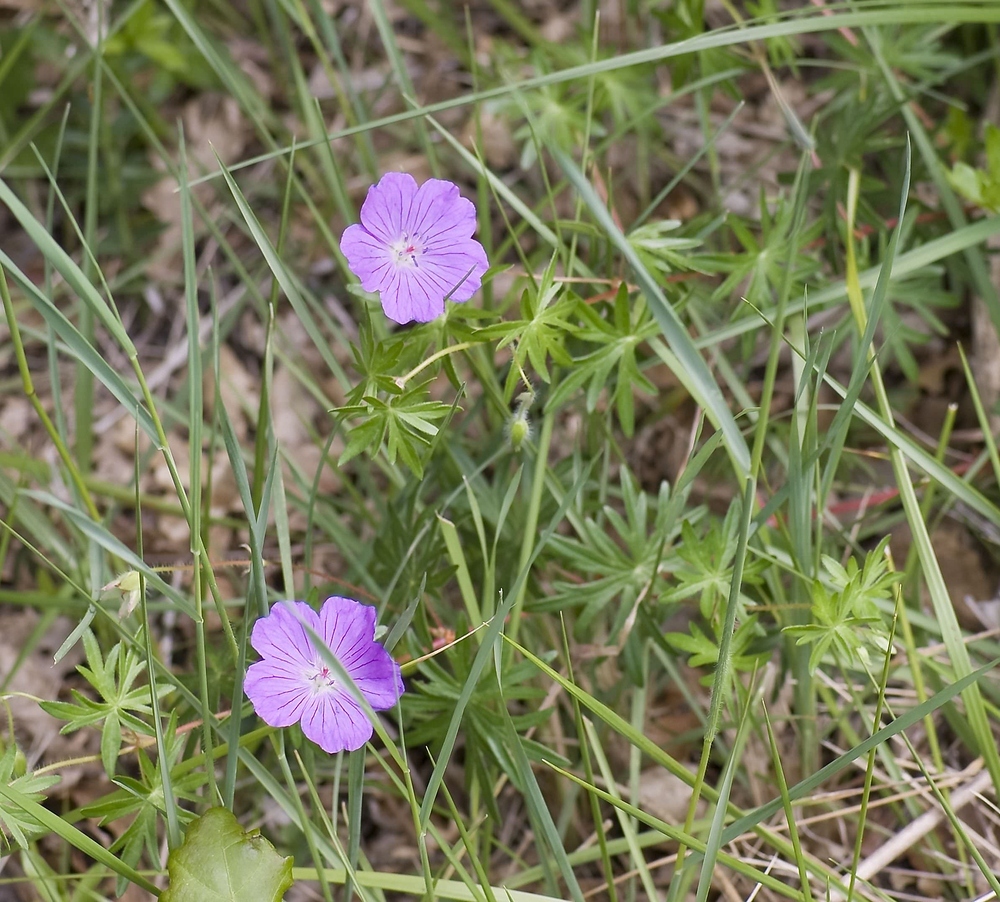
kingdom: Plantae
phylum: Tracheophyta
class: Magnoliopsida
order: Geraniales
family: Geraniaceae
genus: Geranium
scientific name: Geranium sanguineum
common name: Bloody crane's-bill
